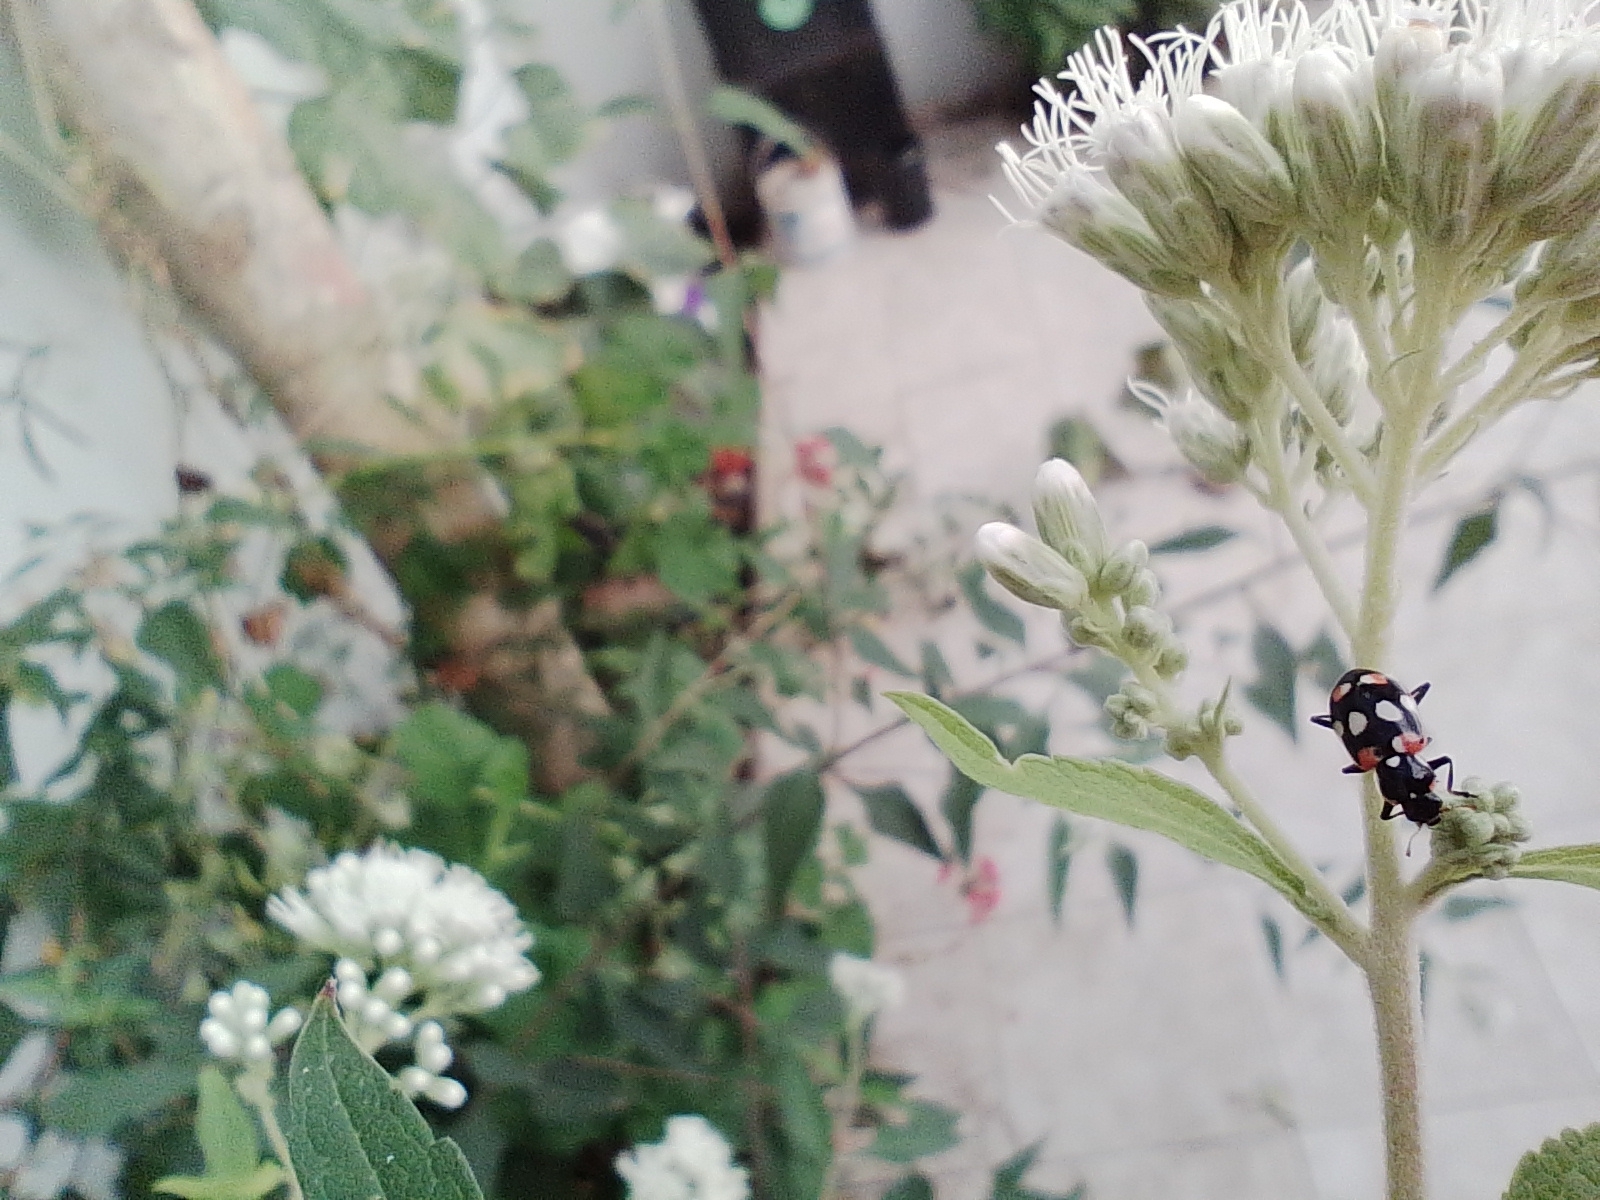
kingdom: Animalia
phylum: Arthropoda
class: Insecta
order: Coleoptera
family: Coccinellidae
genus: Eriopis
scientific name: Eriopis connexa
